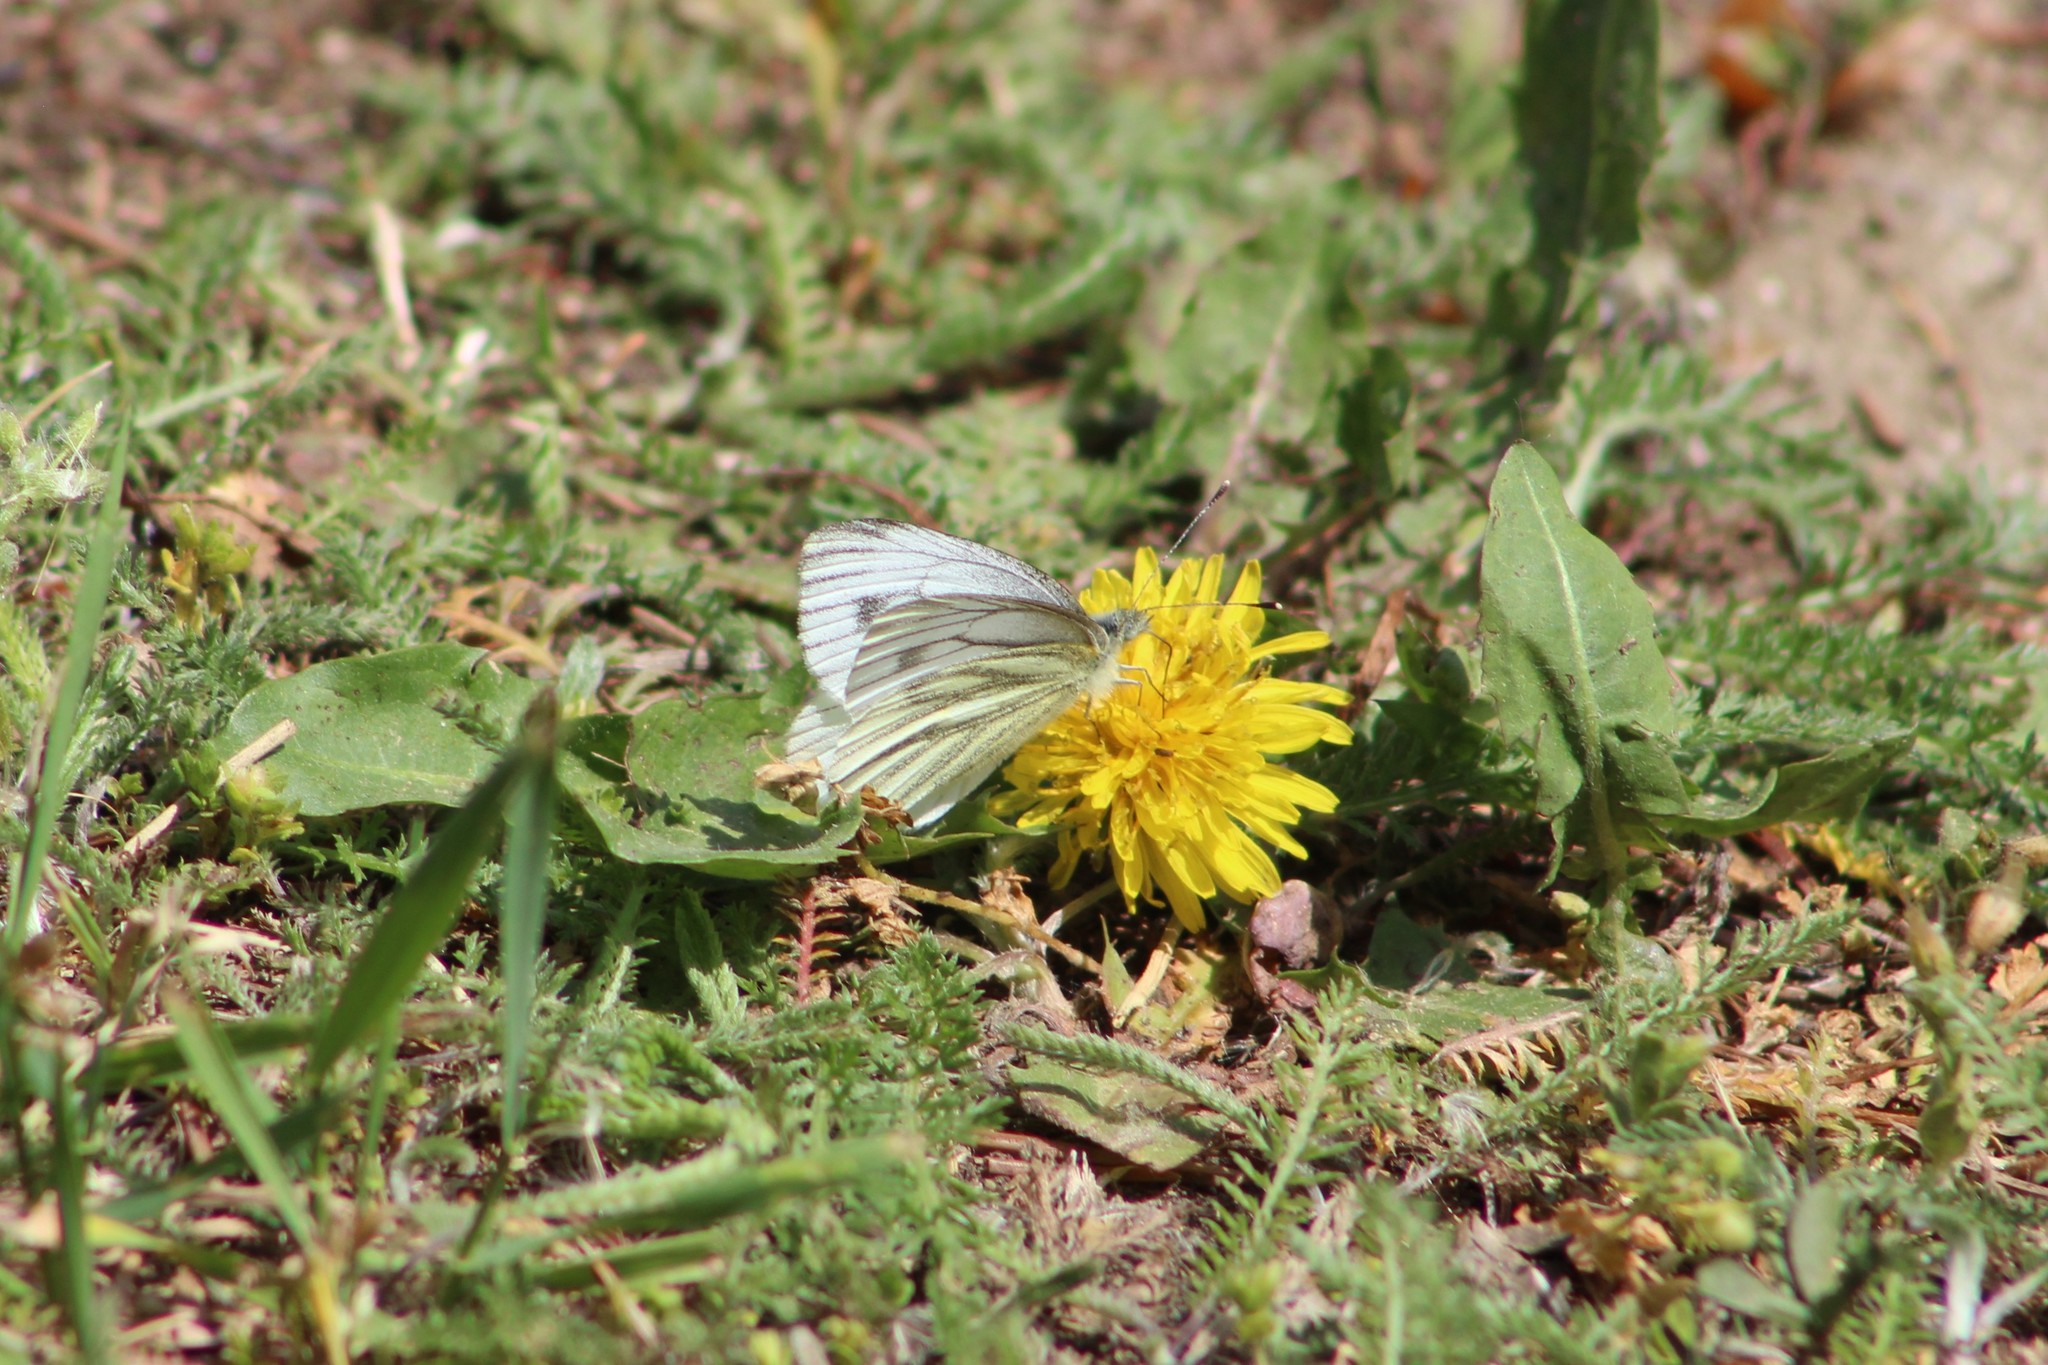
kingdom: Animalia
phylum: Arthropoda
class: Insecta
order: Lepidoptera
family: Pieridae
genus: Pieris
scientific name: Pieris napi
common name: Green-veined white
